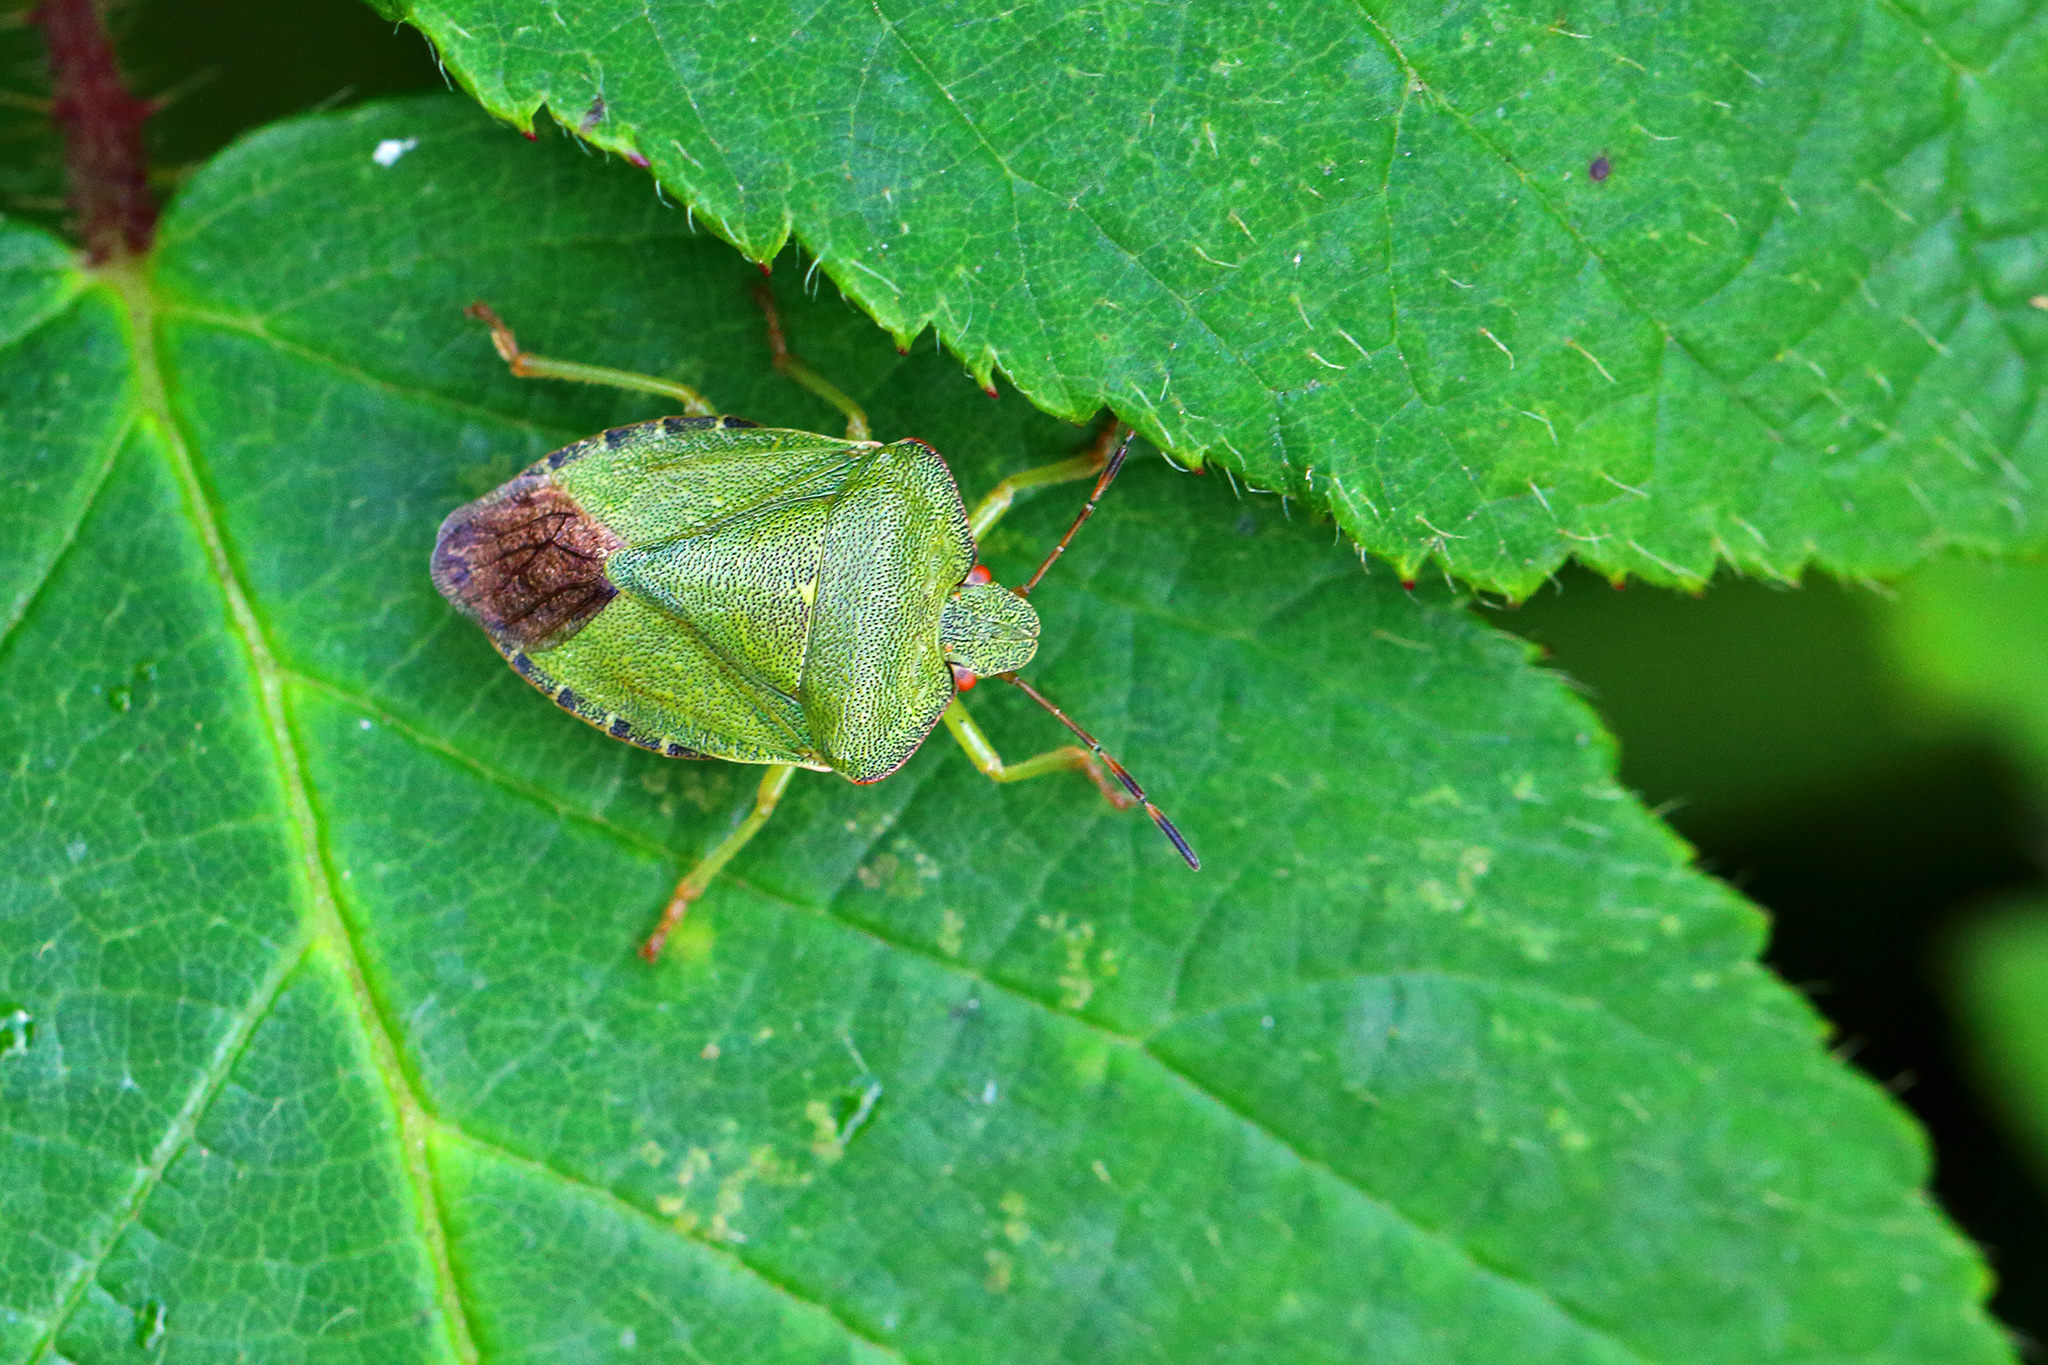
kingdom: Animalia
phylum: Arthropoda
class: Insecta
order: Hemiptera
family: Pentatomidae
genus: Palomena
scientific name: Palomena prasina
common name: Green shieldbug
